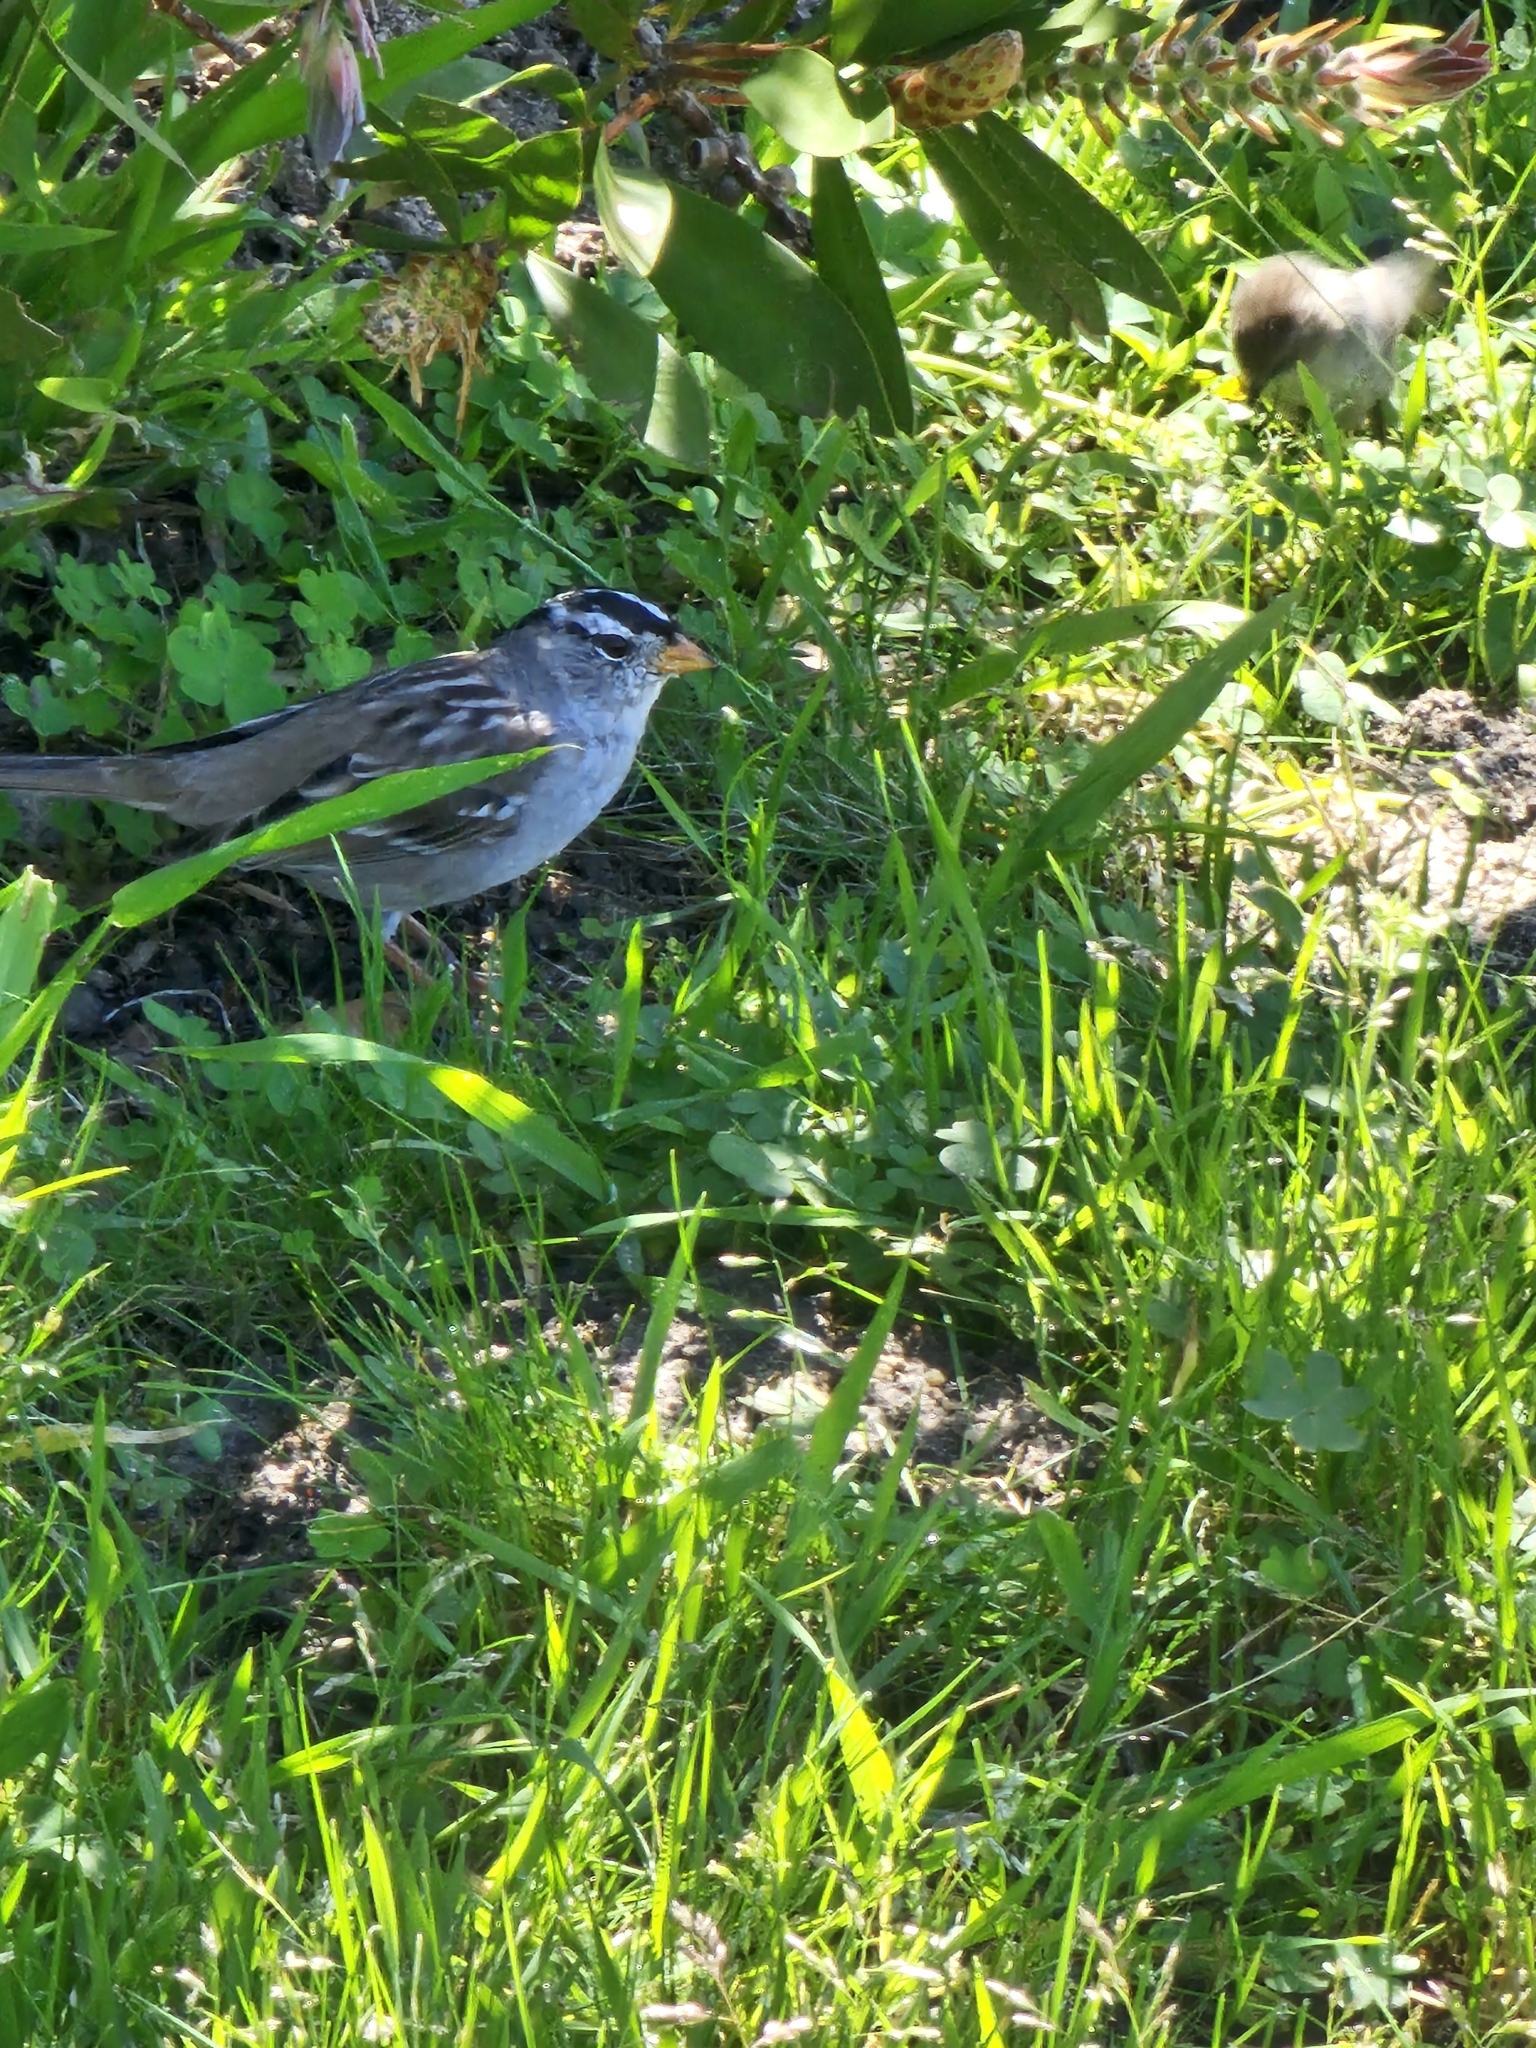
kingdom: Animalia
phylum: Chordata
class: Aves
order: Passeriformes
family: Passerellidae
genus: Zonotrichia
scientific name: Zonotrichia leucophrys
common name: White-crowned sparrow
